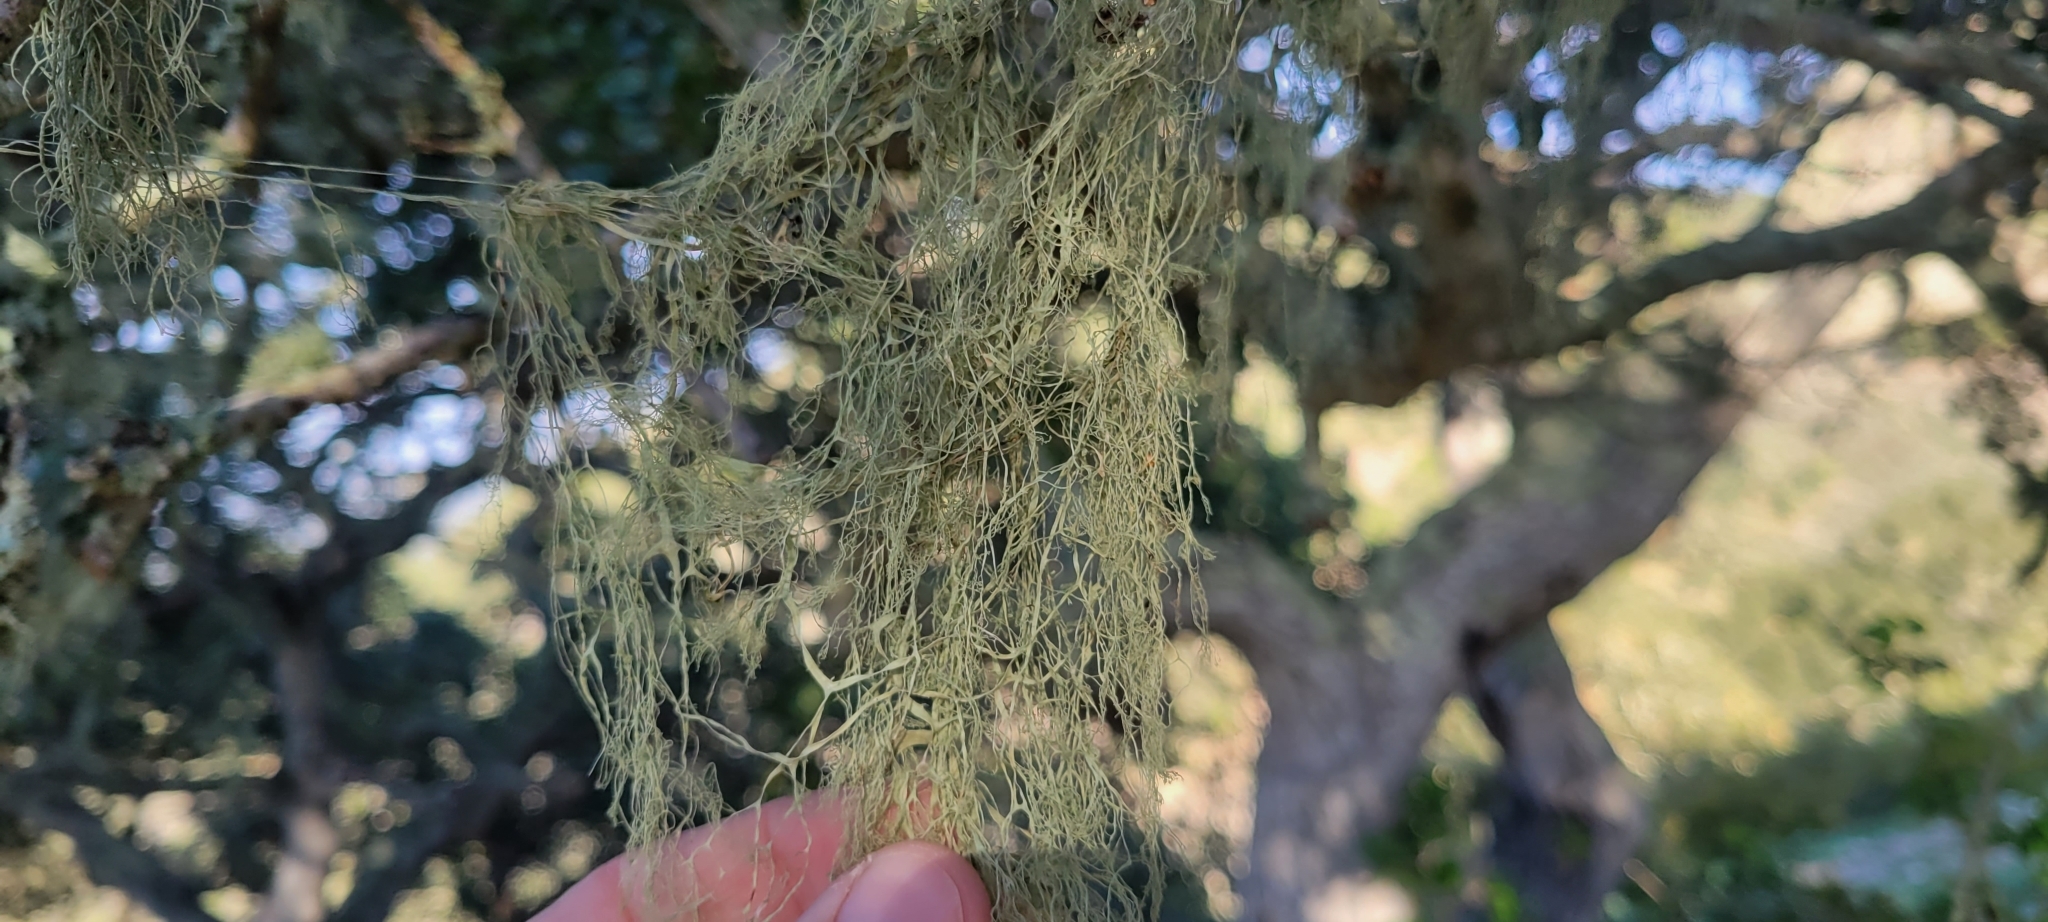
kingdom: Fungi
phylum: Ascomycota
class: Lecanoromycetes
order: Lecanorales
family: Ramalinaceae
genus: Ramalina
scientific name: Ramalina menziesii
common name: Lace lichen
